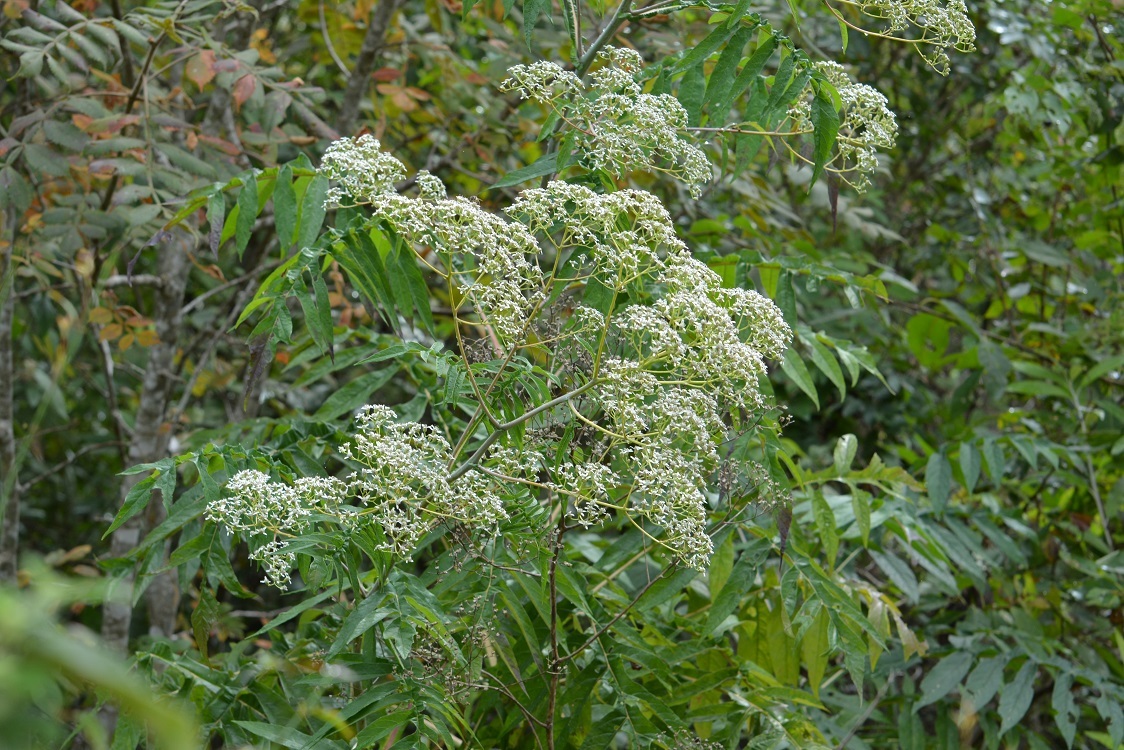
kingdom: Plantae
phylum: Tracheophyta
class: Magnoliopsida
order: Asterales
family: Asteraceae
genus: Verbesina
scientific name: Verbesina gigantea
